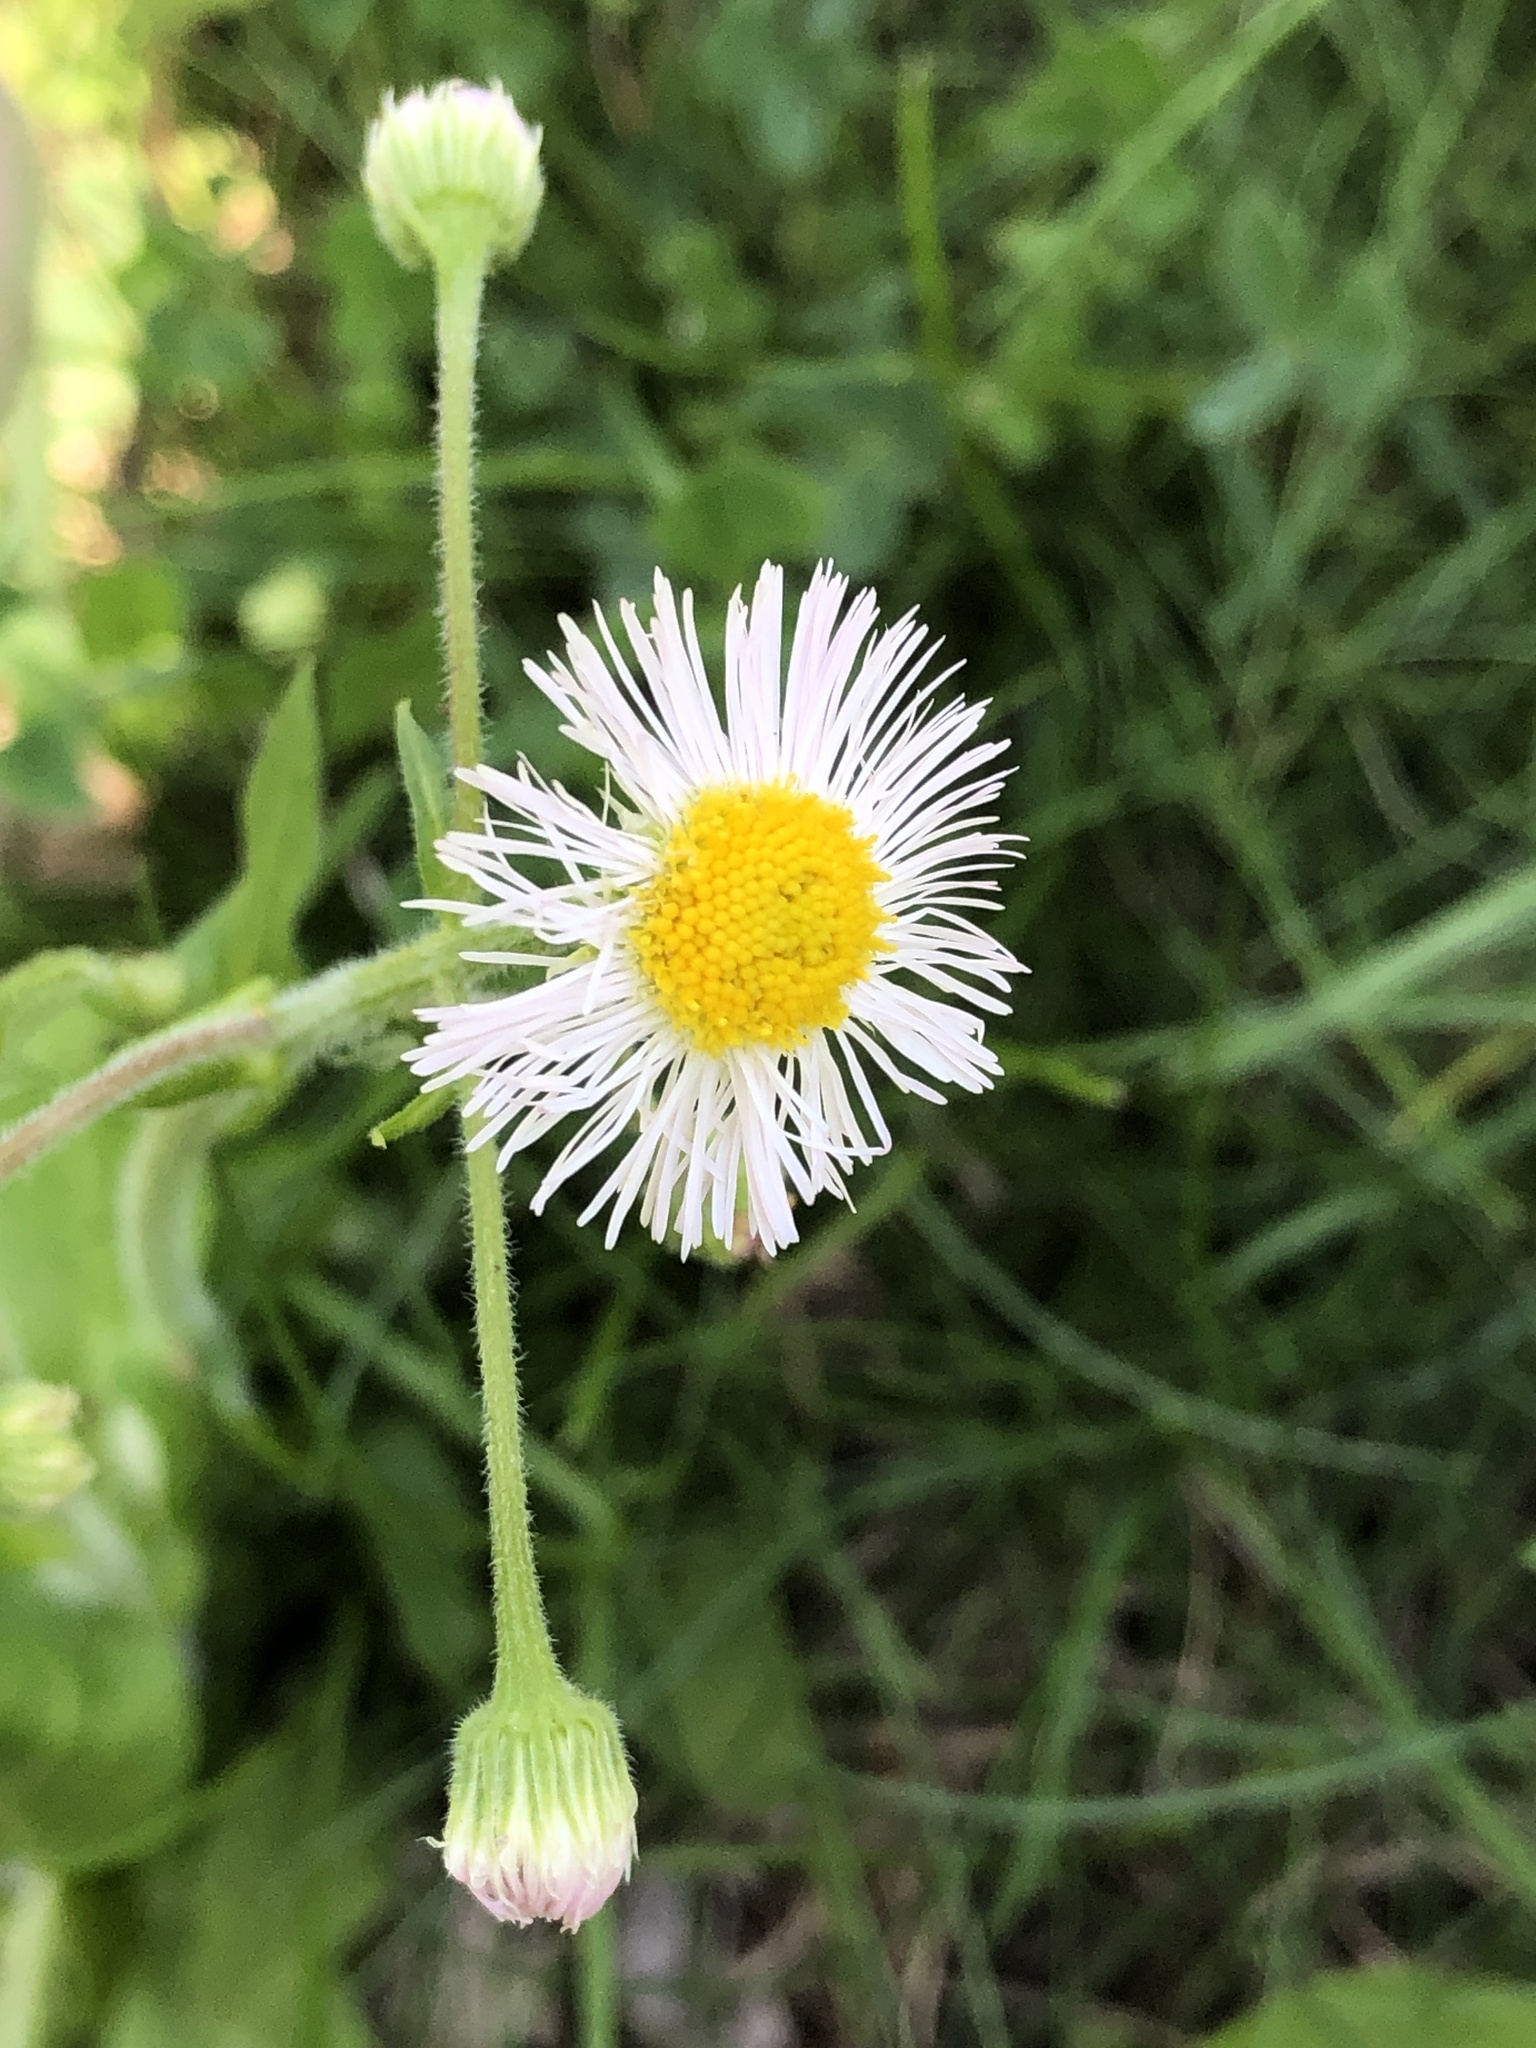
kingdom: Plantae
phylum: Tracheophyta
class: Magnoliopsida
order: Asterales
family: Asteraceae
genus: Erigeron
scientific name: Erigeron philadelphicus
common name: Robin's-plantain
